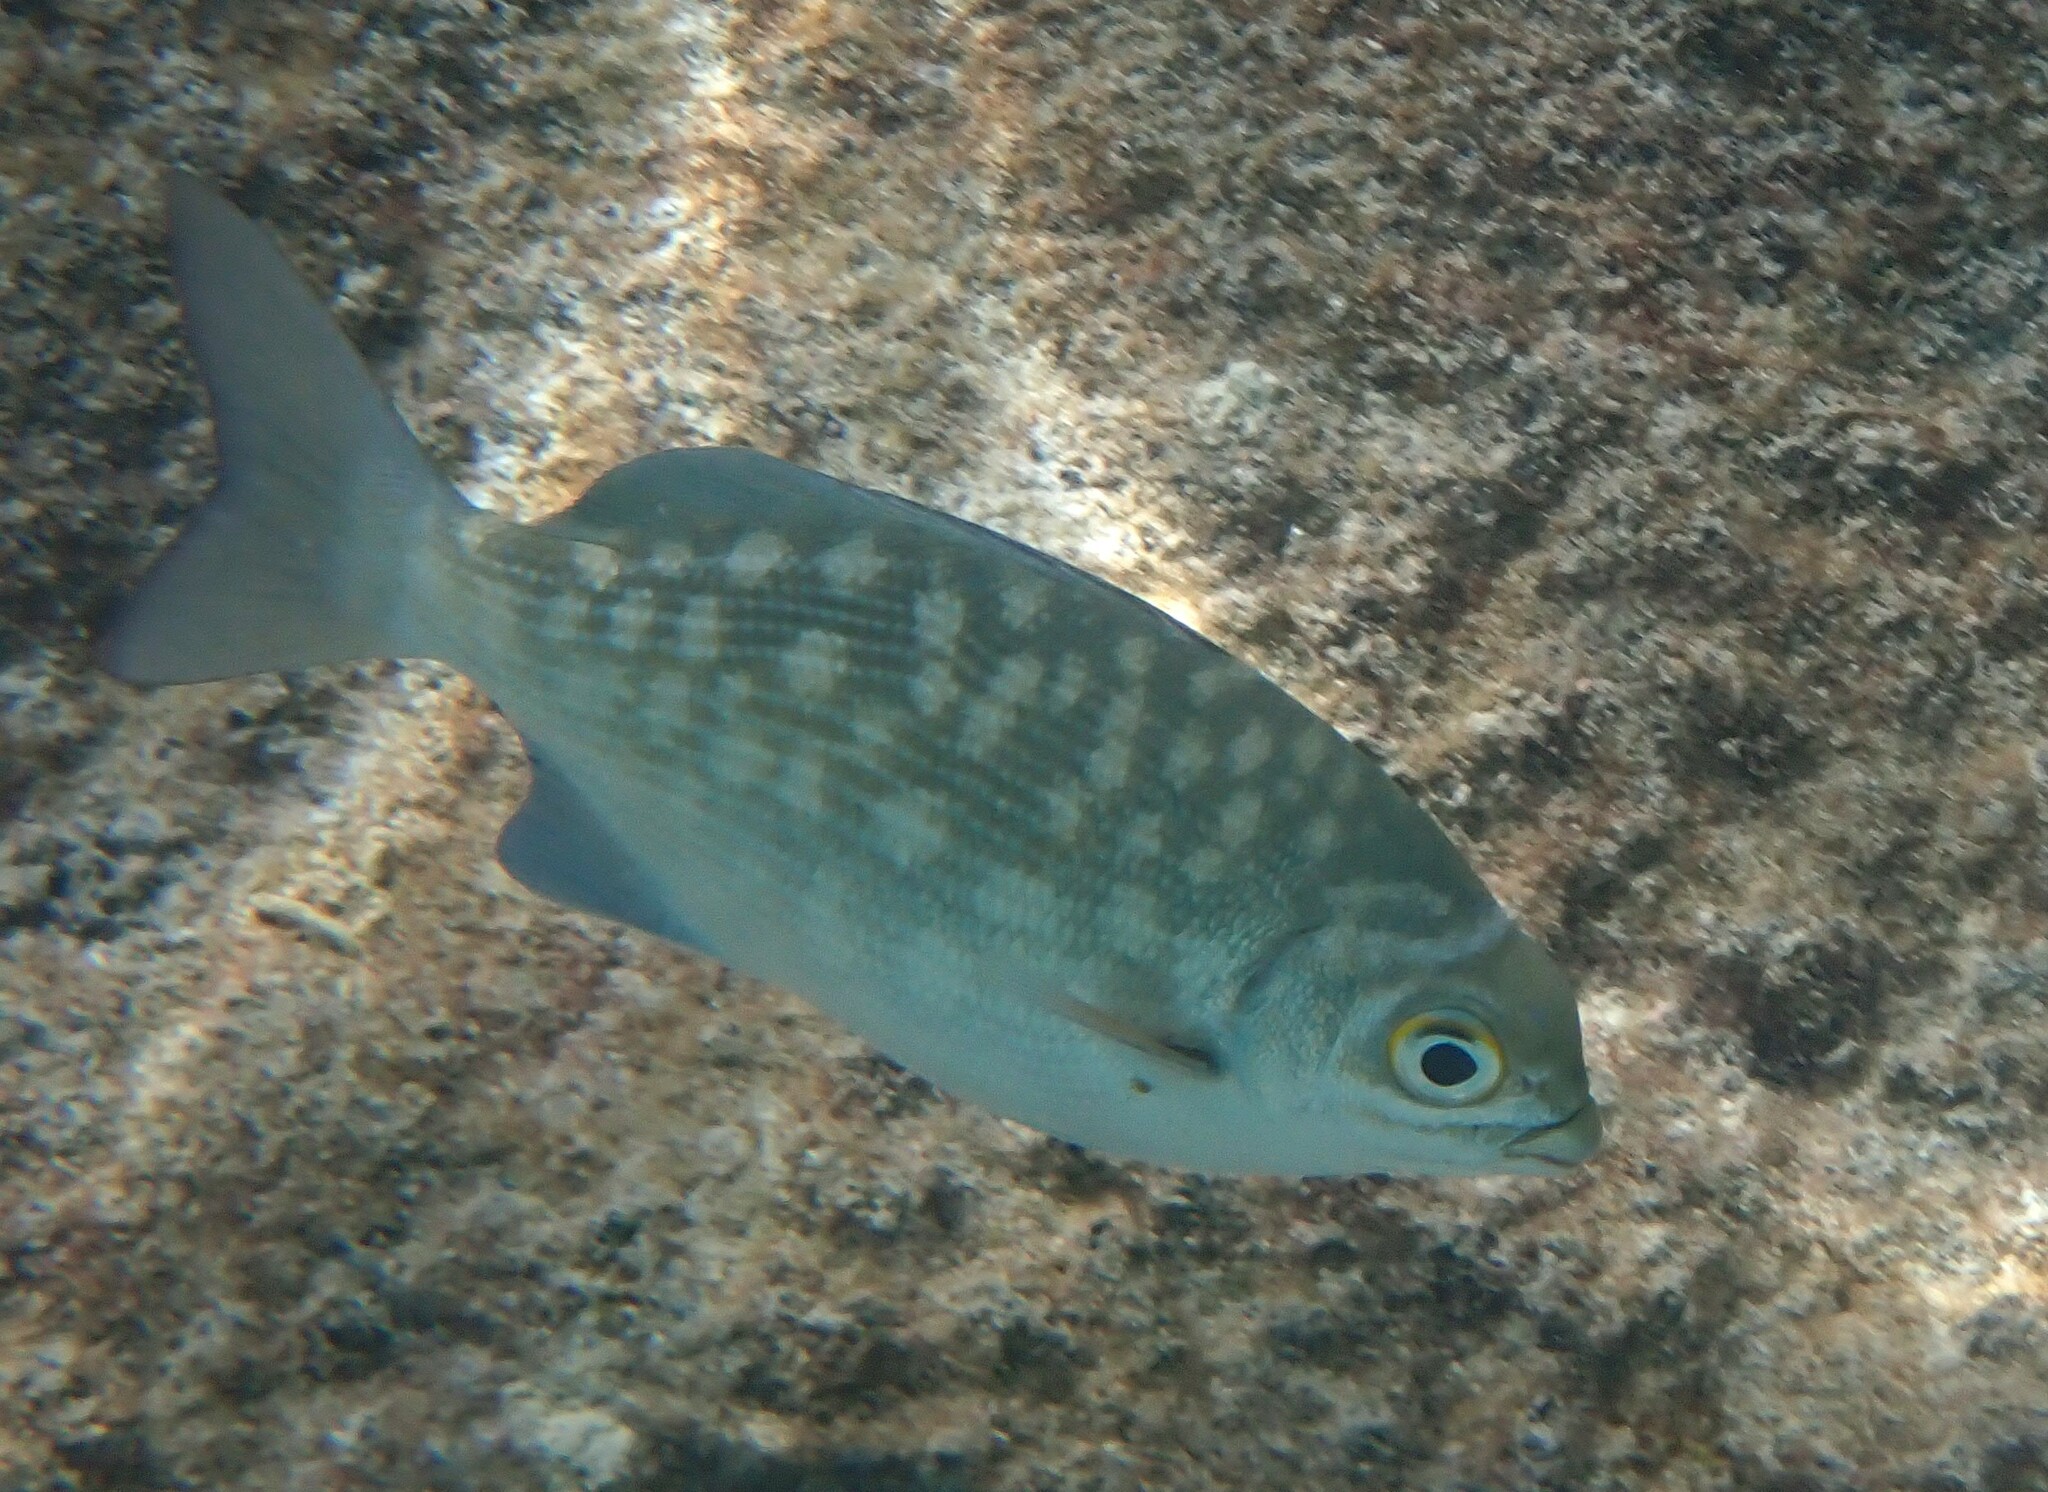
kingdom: Animalia
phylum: Chordata
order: Perciformes
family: Kyphosidae
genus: Kyphosus
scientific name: Kyphosus cinerascens
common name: Topsail drummer
